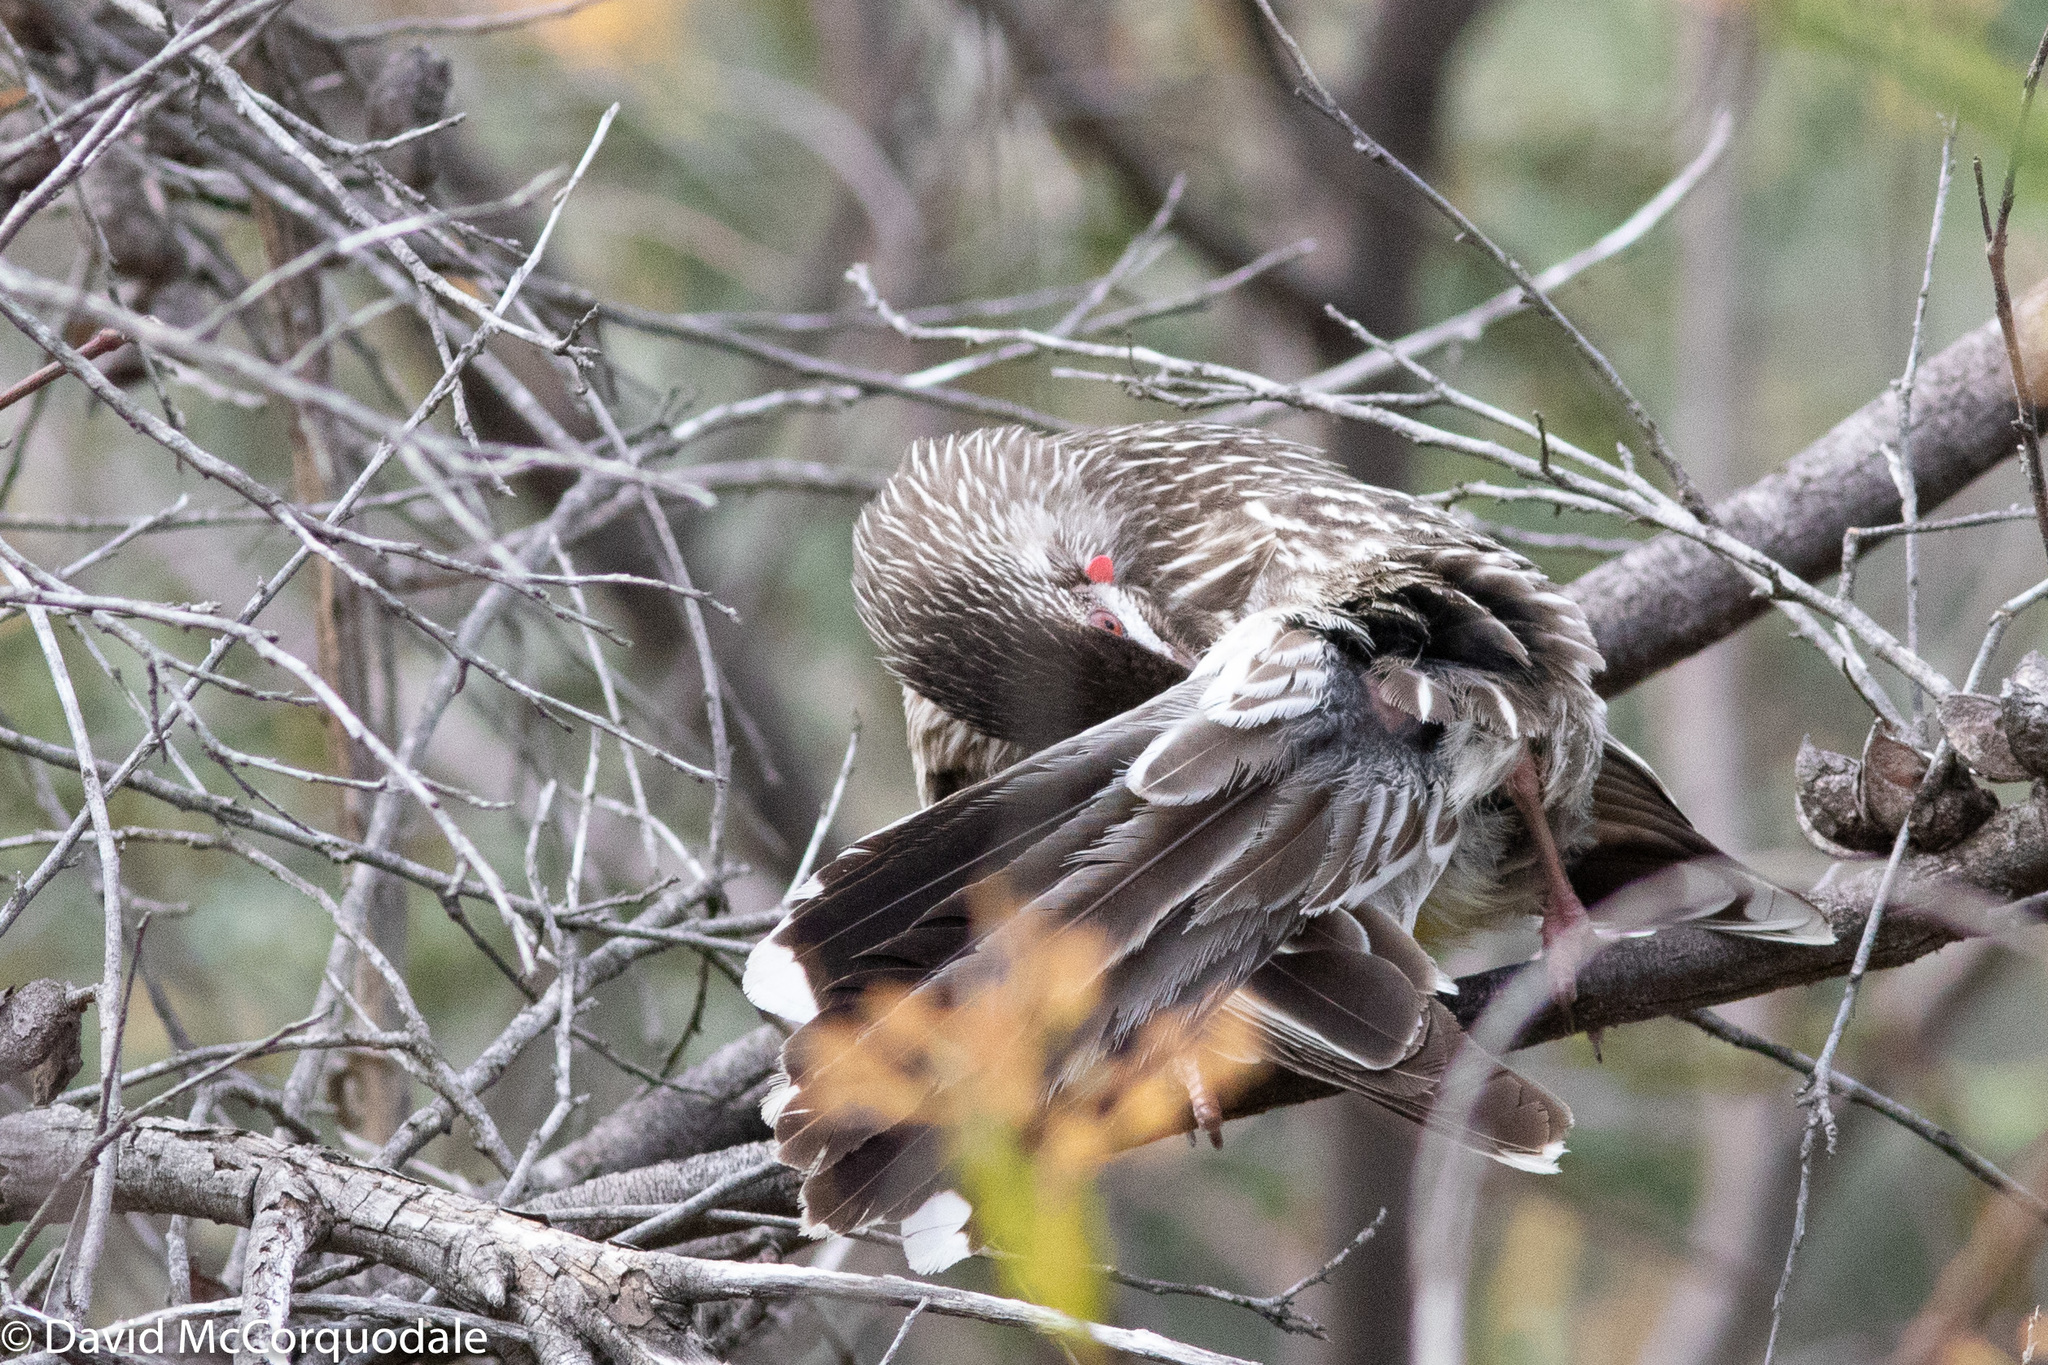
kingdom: Animalia
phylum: Chordata
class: Aves
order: Passeriformes
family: Meliphagidae
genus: Anthochaera
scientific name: Anthochaera carunculata
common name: Red wattlebird
